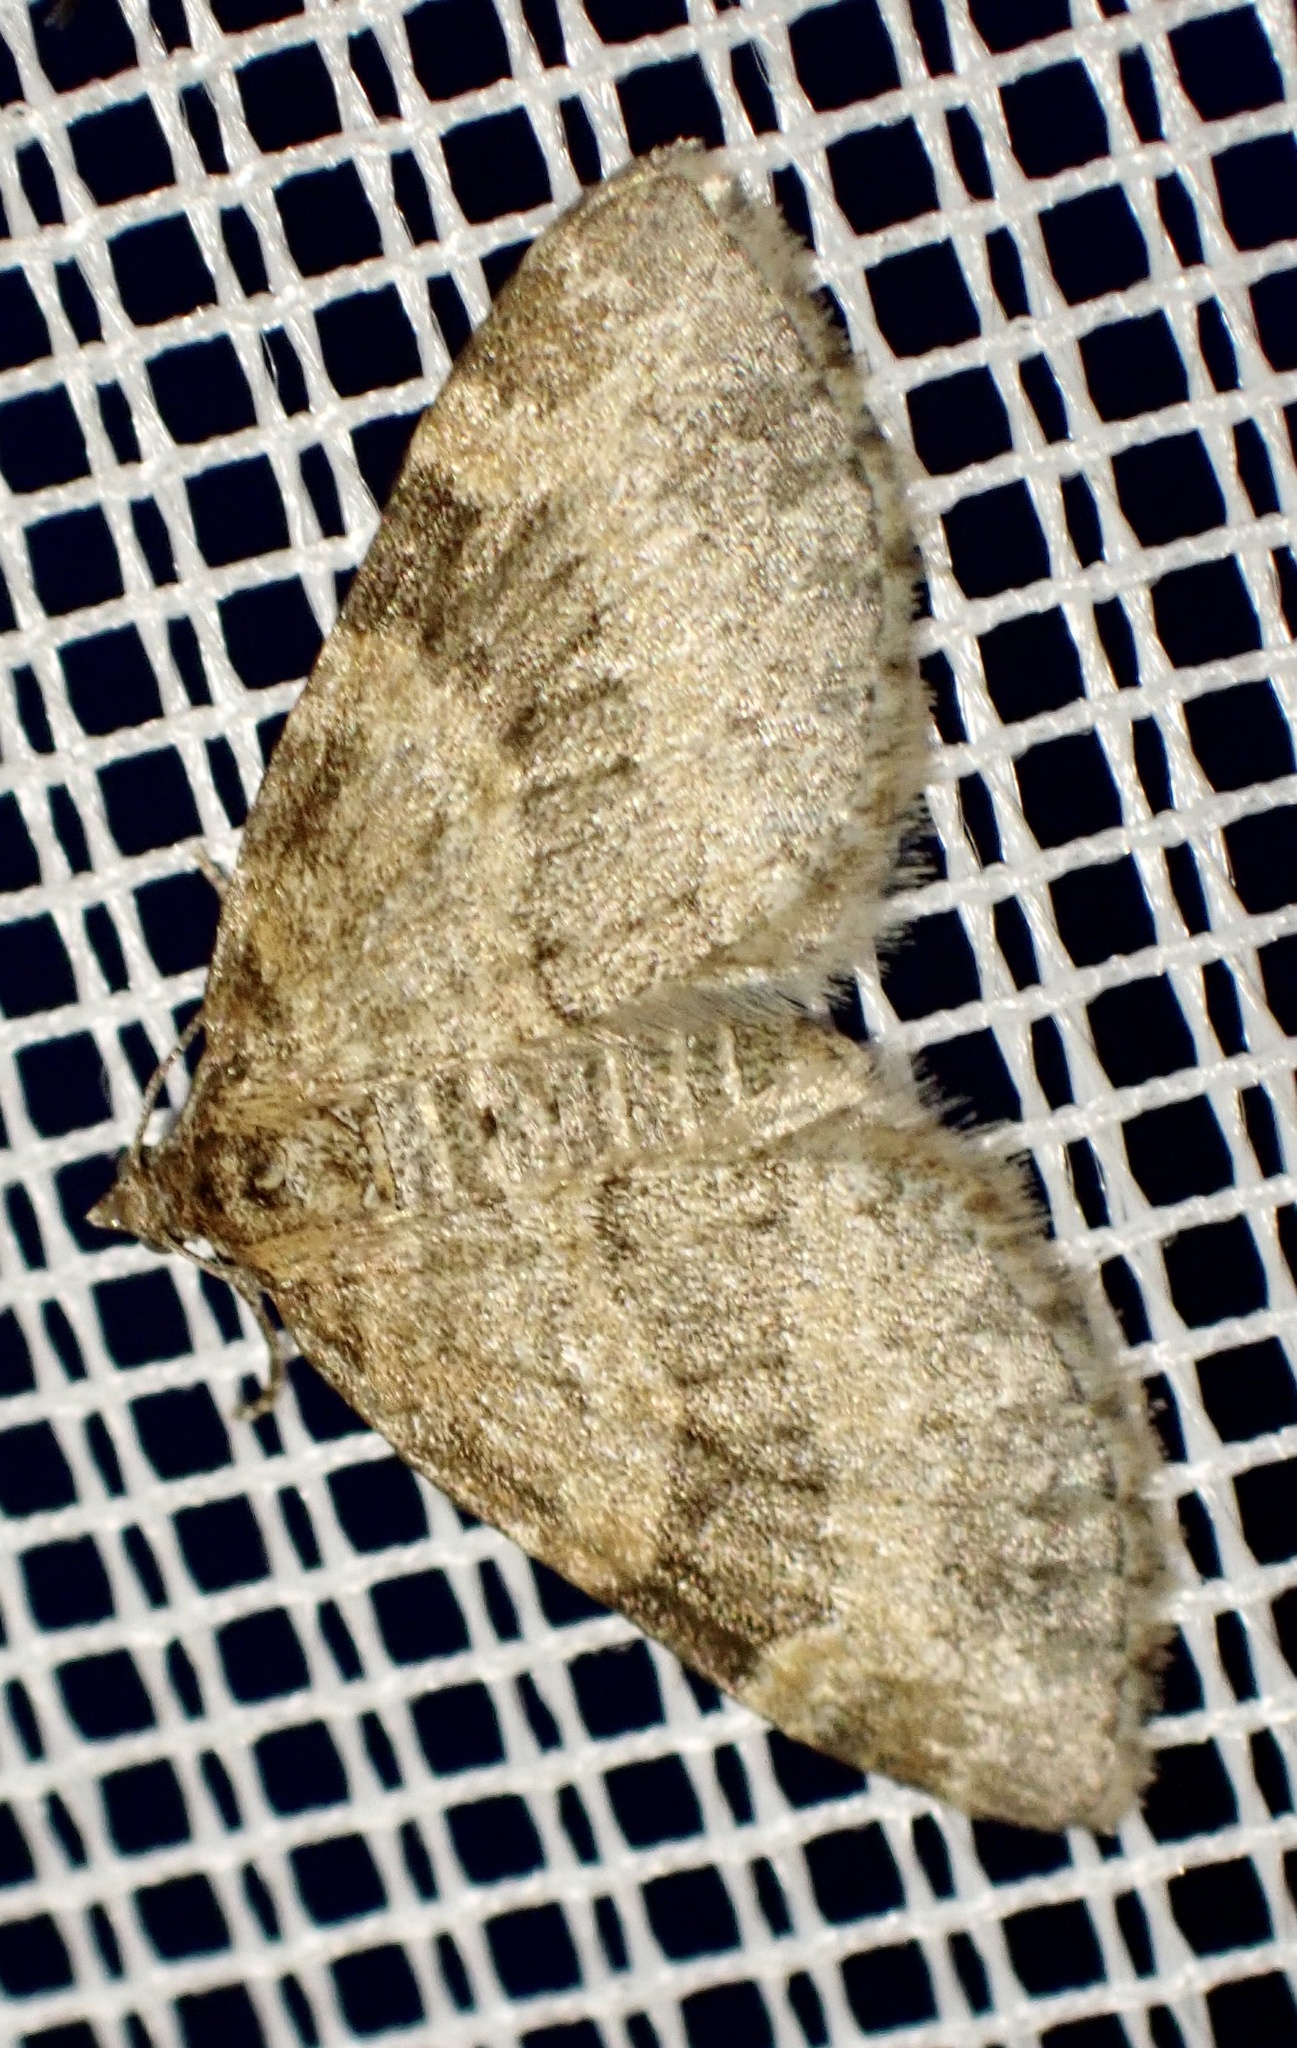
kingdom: Animalia
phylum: Arthropoda
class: Insecta
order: Lepidoptera
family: Geometridae
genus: Pterapherapteryx
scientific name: Pterapherapteryx sexalata
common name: Small seraphim
